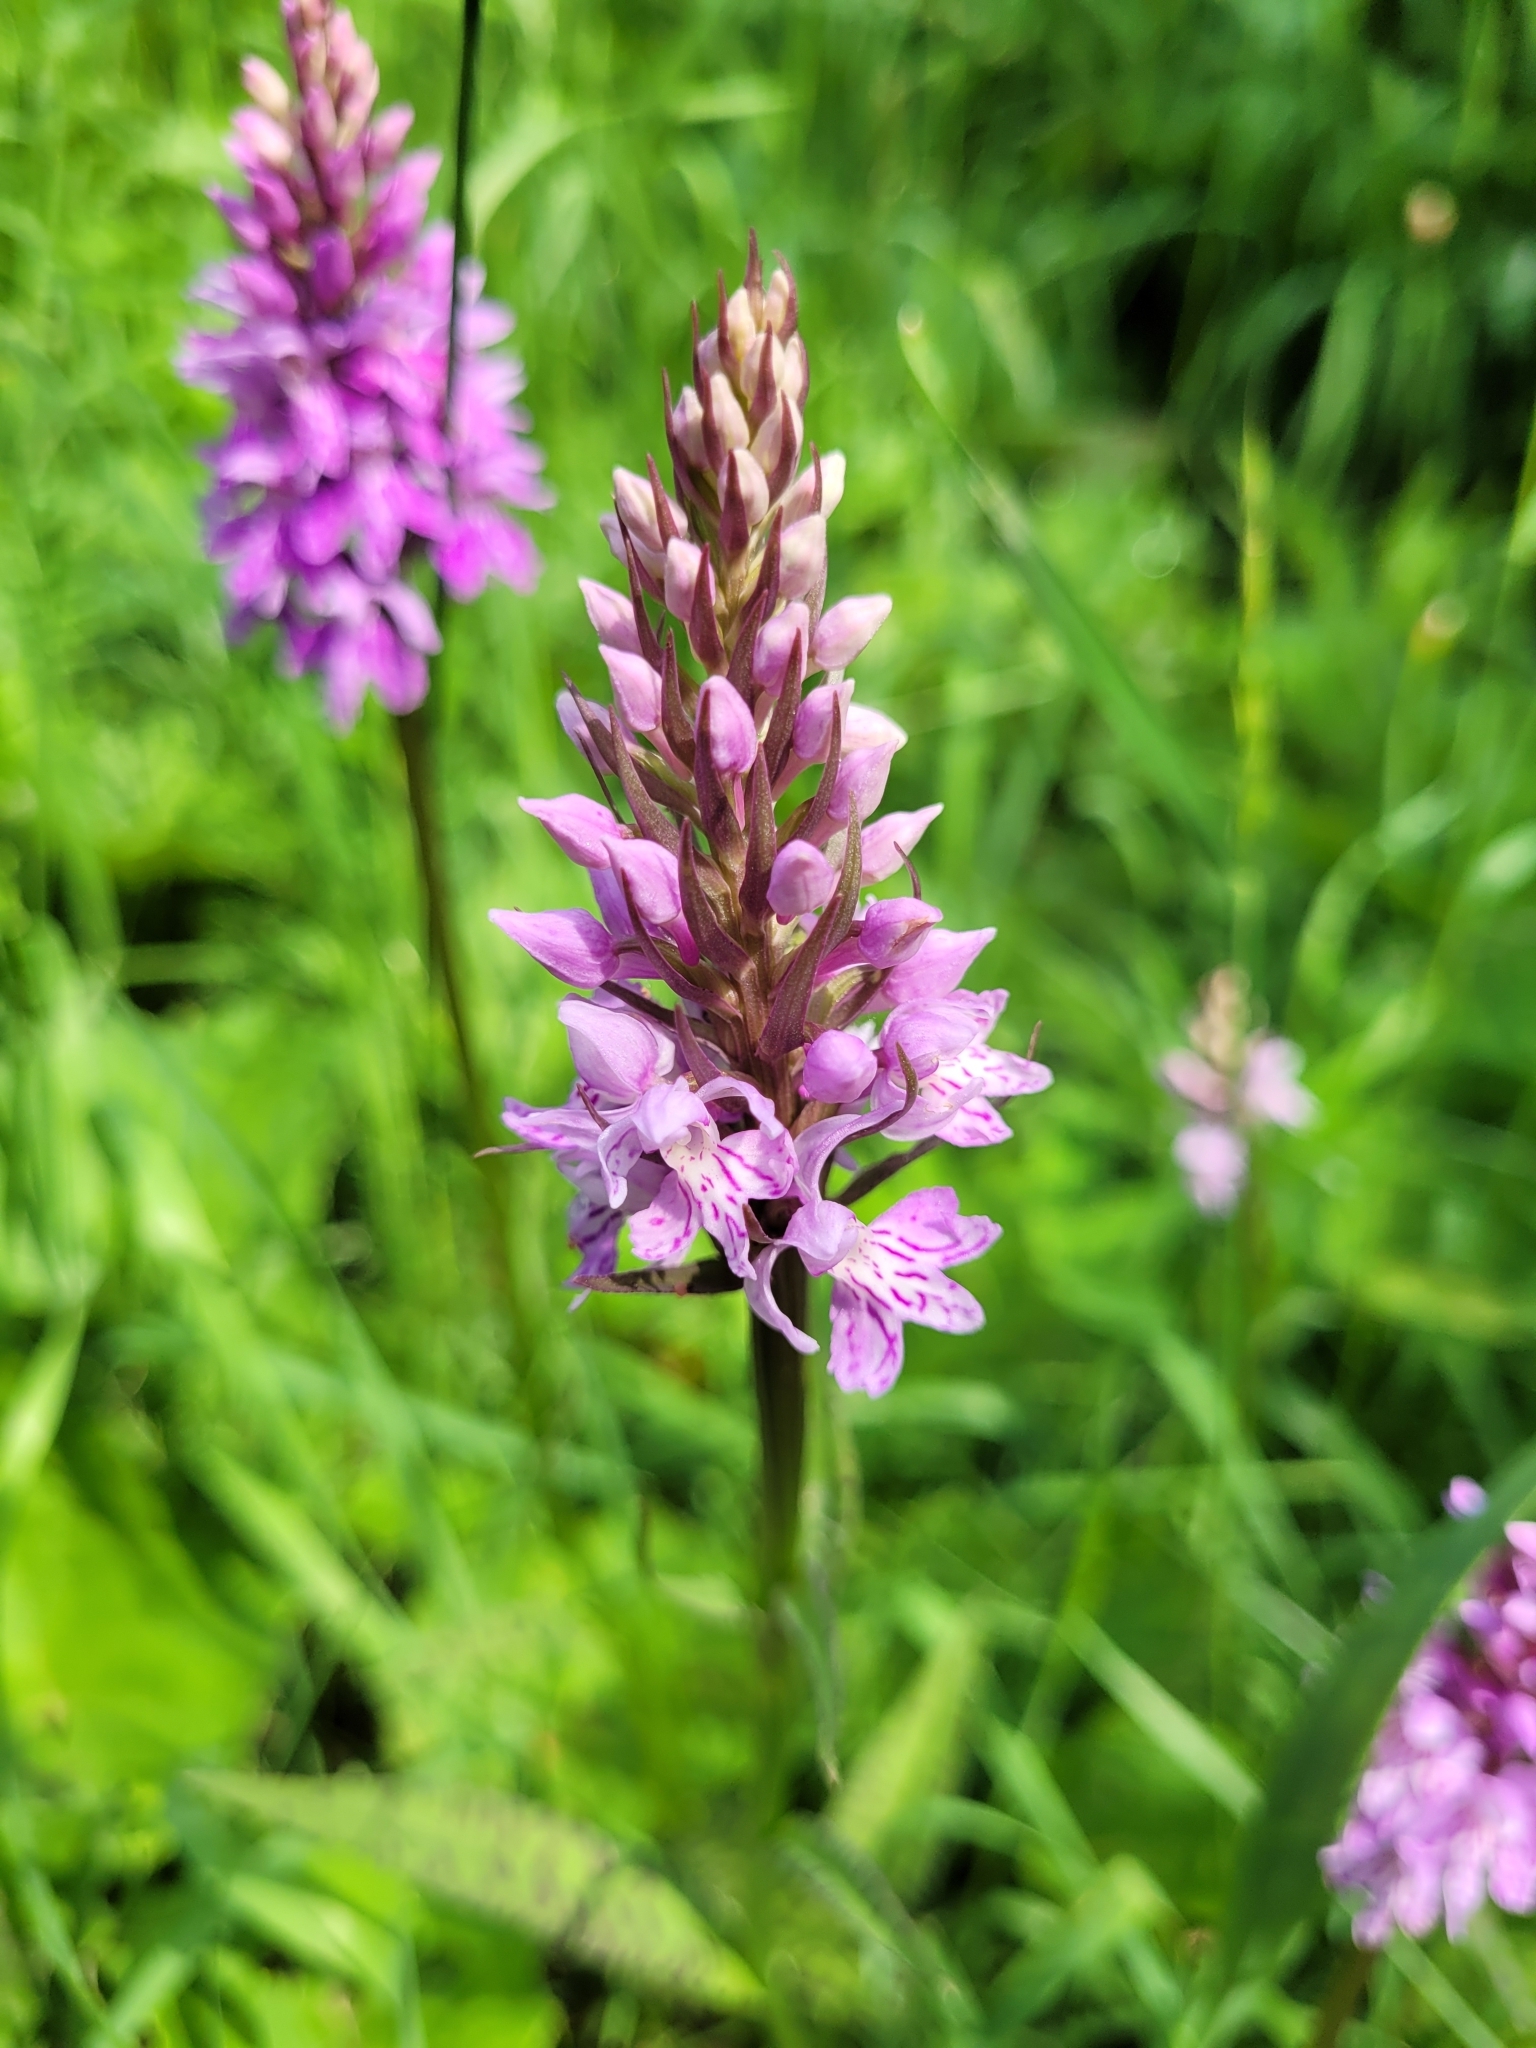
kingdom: Plantae
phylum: Tracheophyta
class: Liliopsida
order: Asparagales
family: Orchidaceae
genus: Dactylorhiza
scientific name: Dactylorhiza maculata
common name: Heath spotted-orchid
